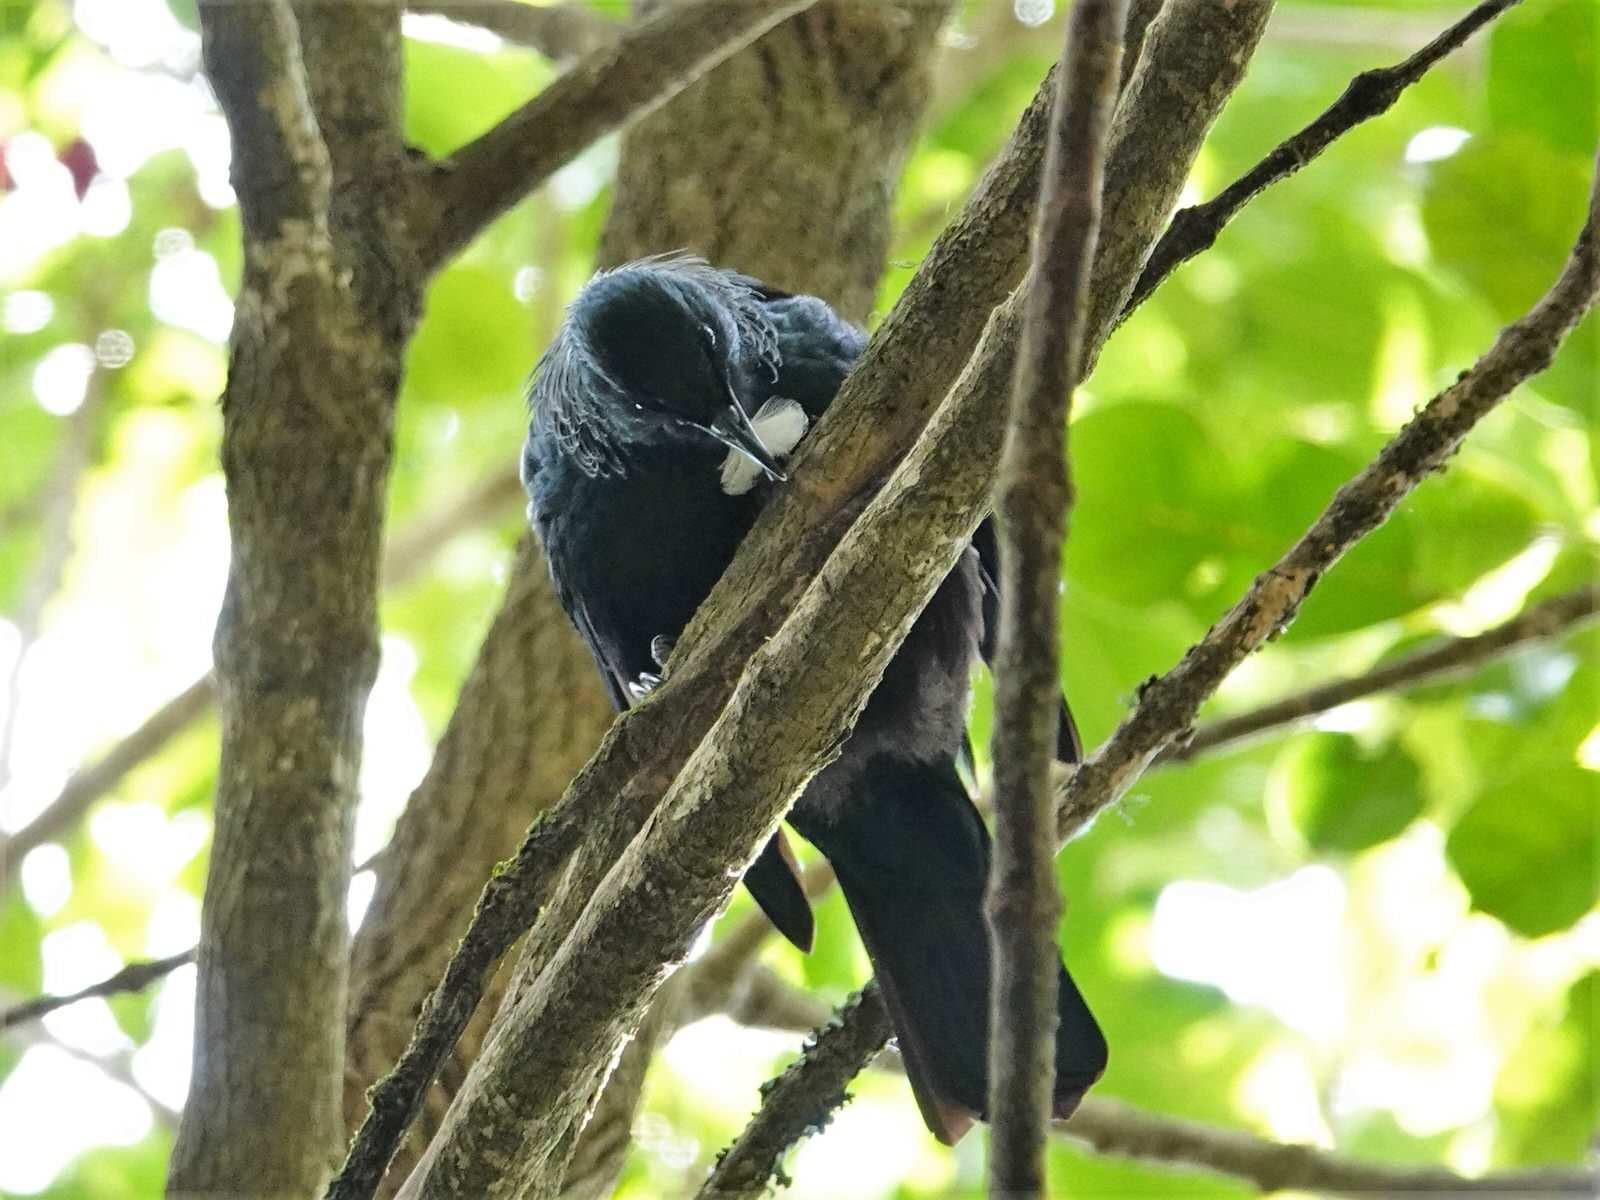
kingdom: Animalia
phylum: Chordata
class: Aves
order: Passeriformes
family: Meliphagidae
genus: Prosthemadera
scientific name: Prosthemadera novaeseelandiae
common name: Tui
